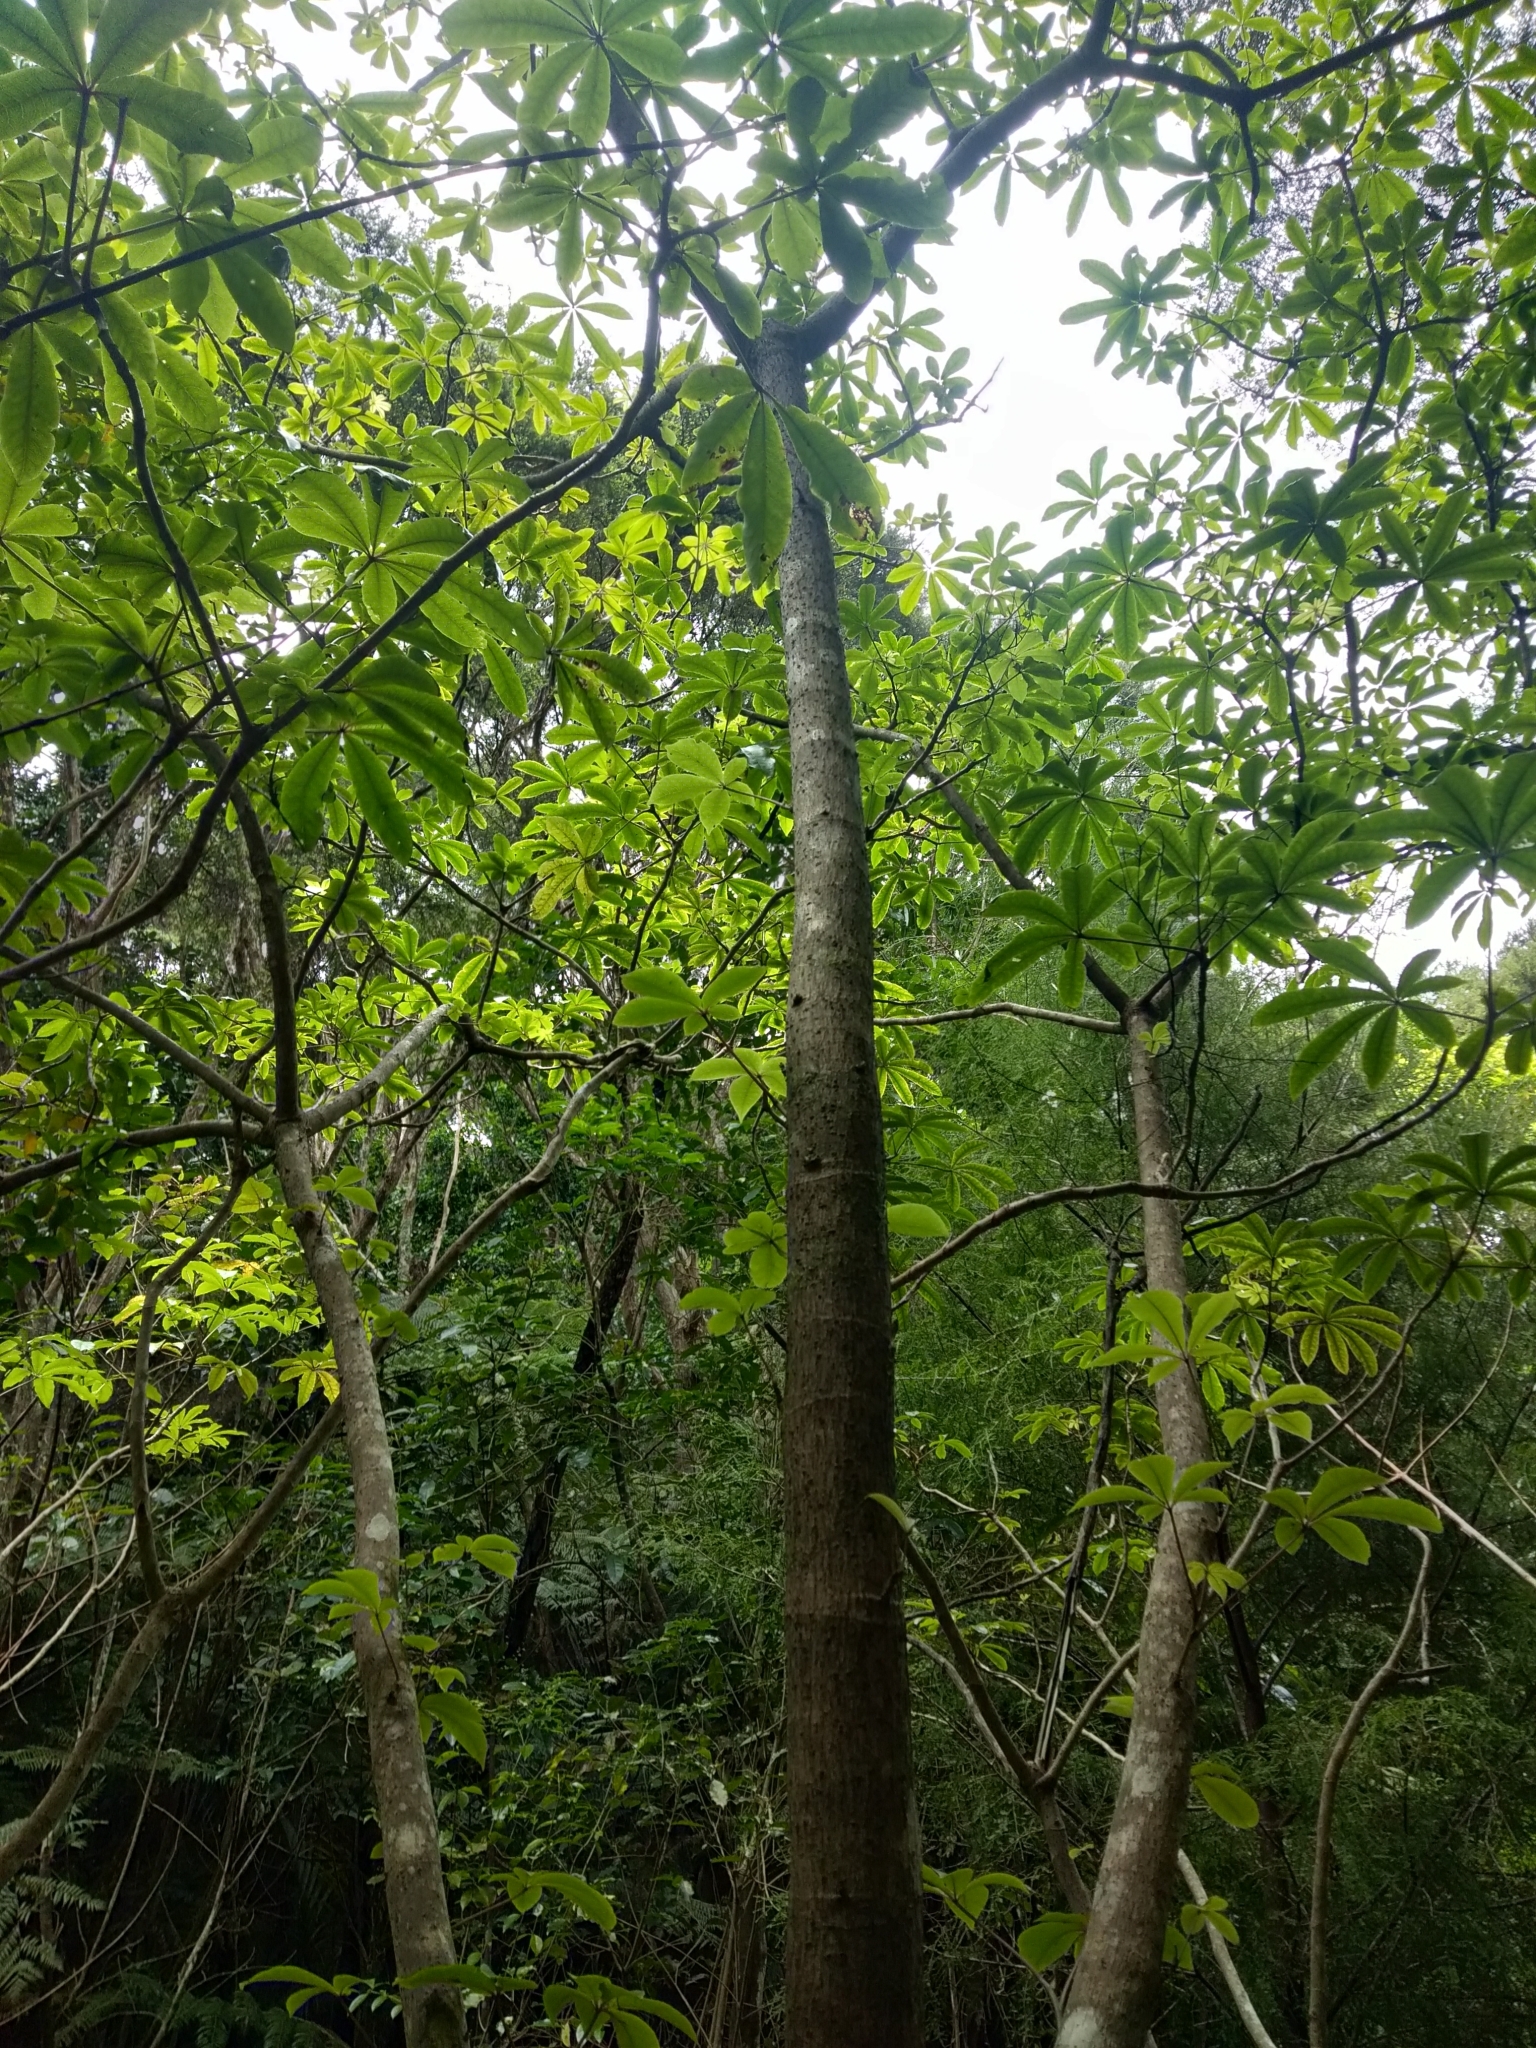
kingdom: Plantae
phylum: Tracheophyta
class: Magnoliopsida
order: Apiales
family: Araliaceae
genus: Schefflera
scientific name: Schefflera digitata
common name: Pate
